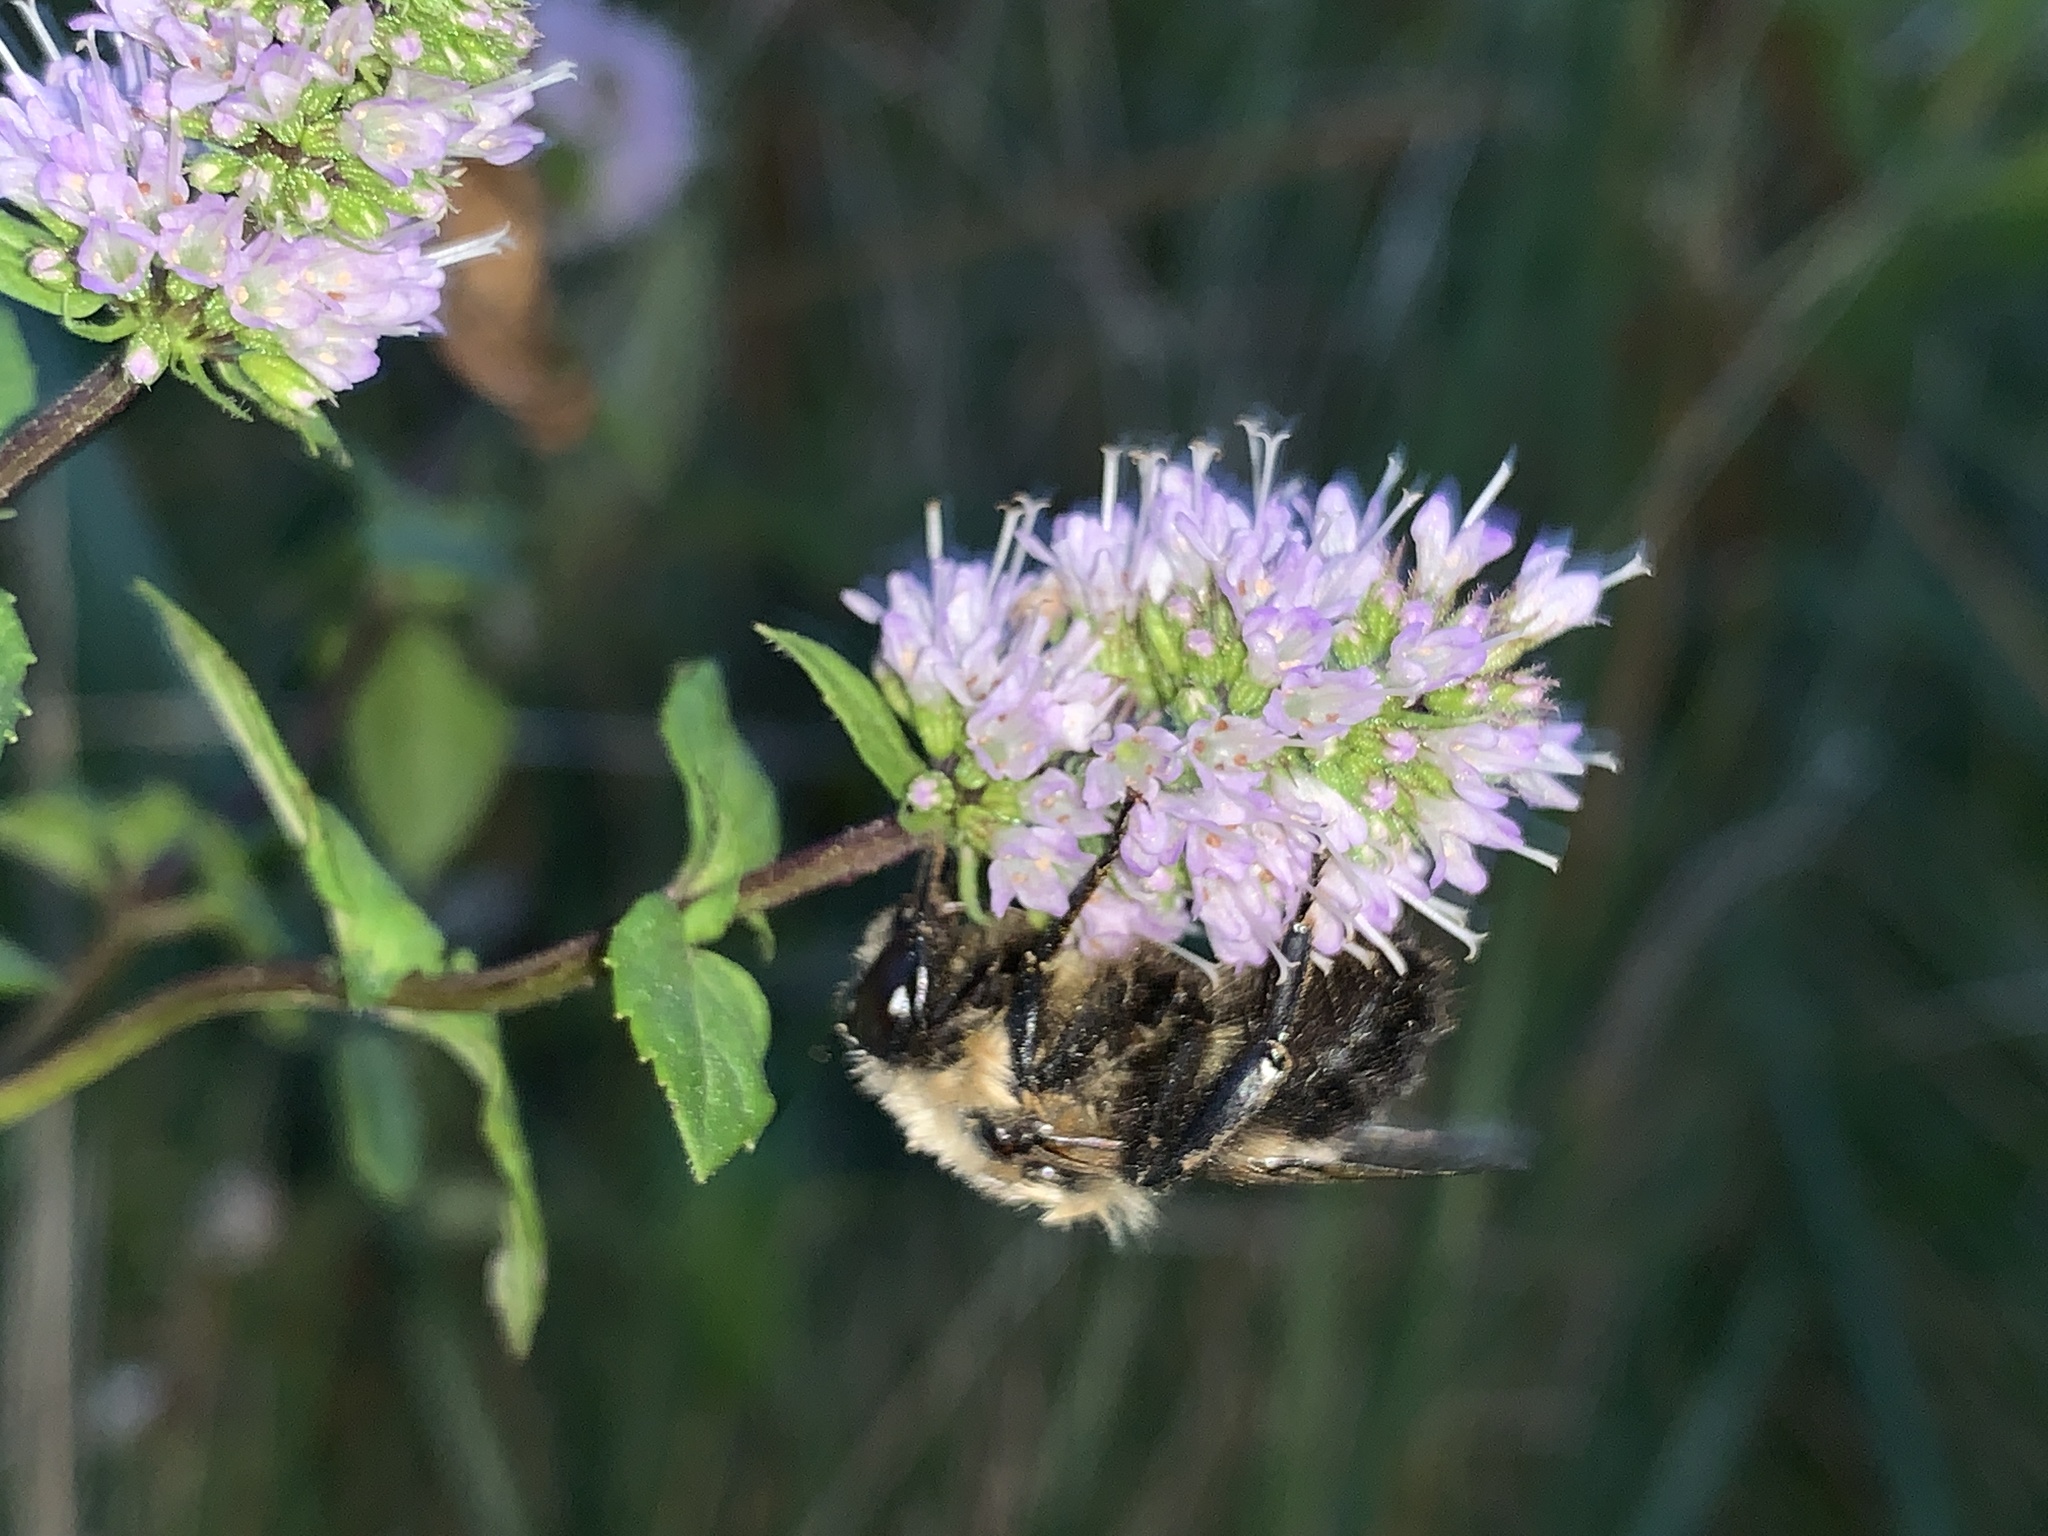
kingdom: Animalia
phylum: Arthropoda
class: Insecta
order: Hymenoptera
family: Apidae
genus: Bombus
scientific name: Bombus griseocollis
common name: Brown-belted bumble bee
